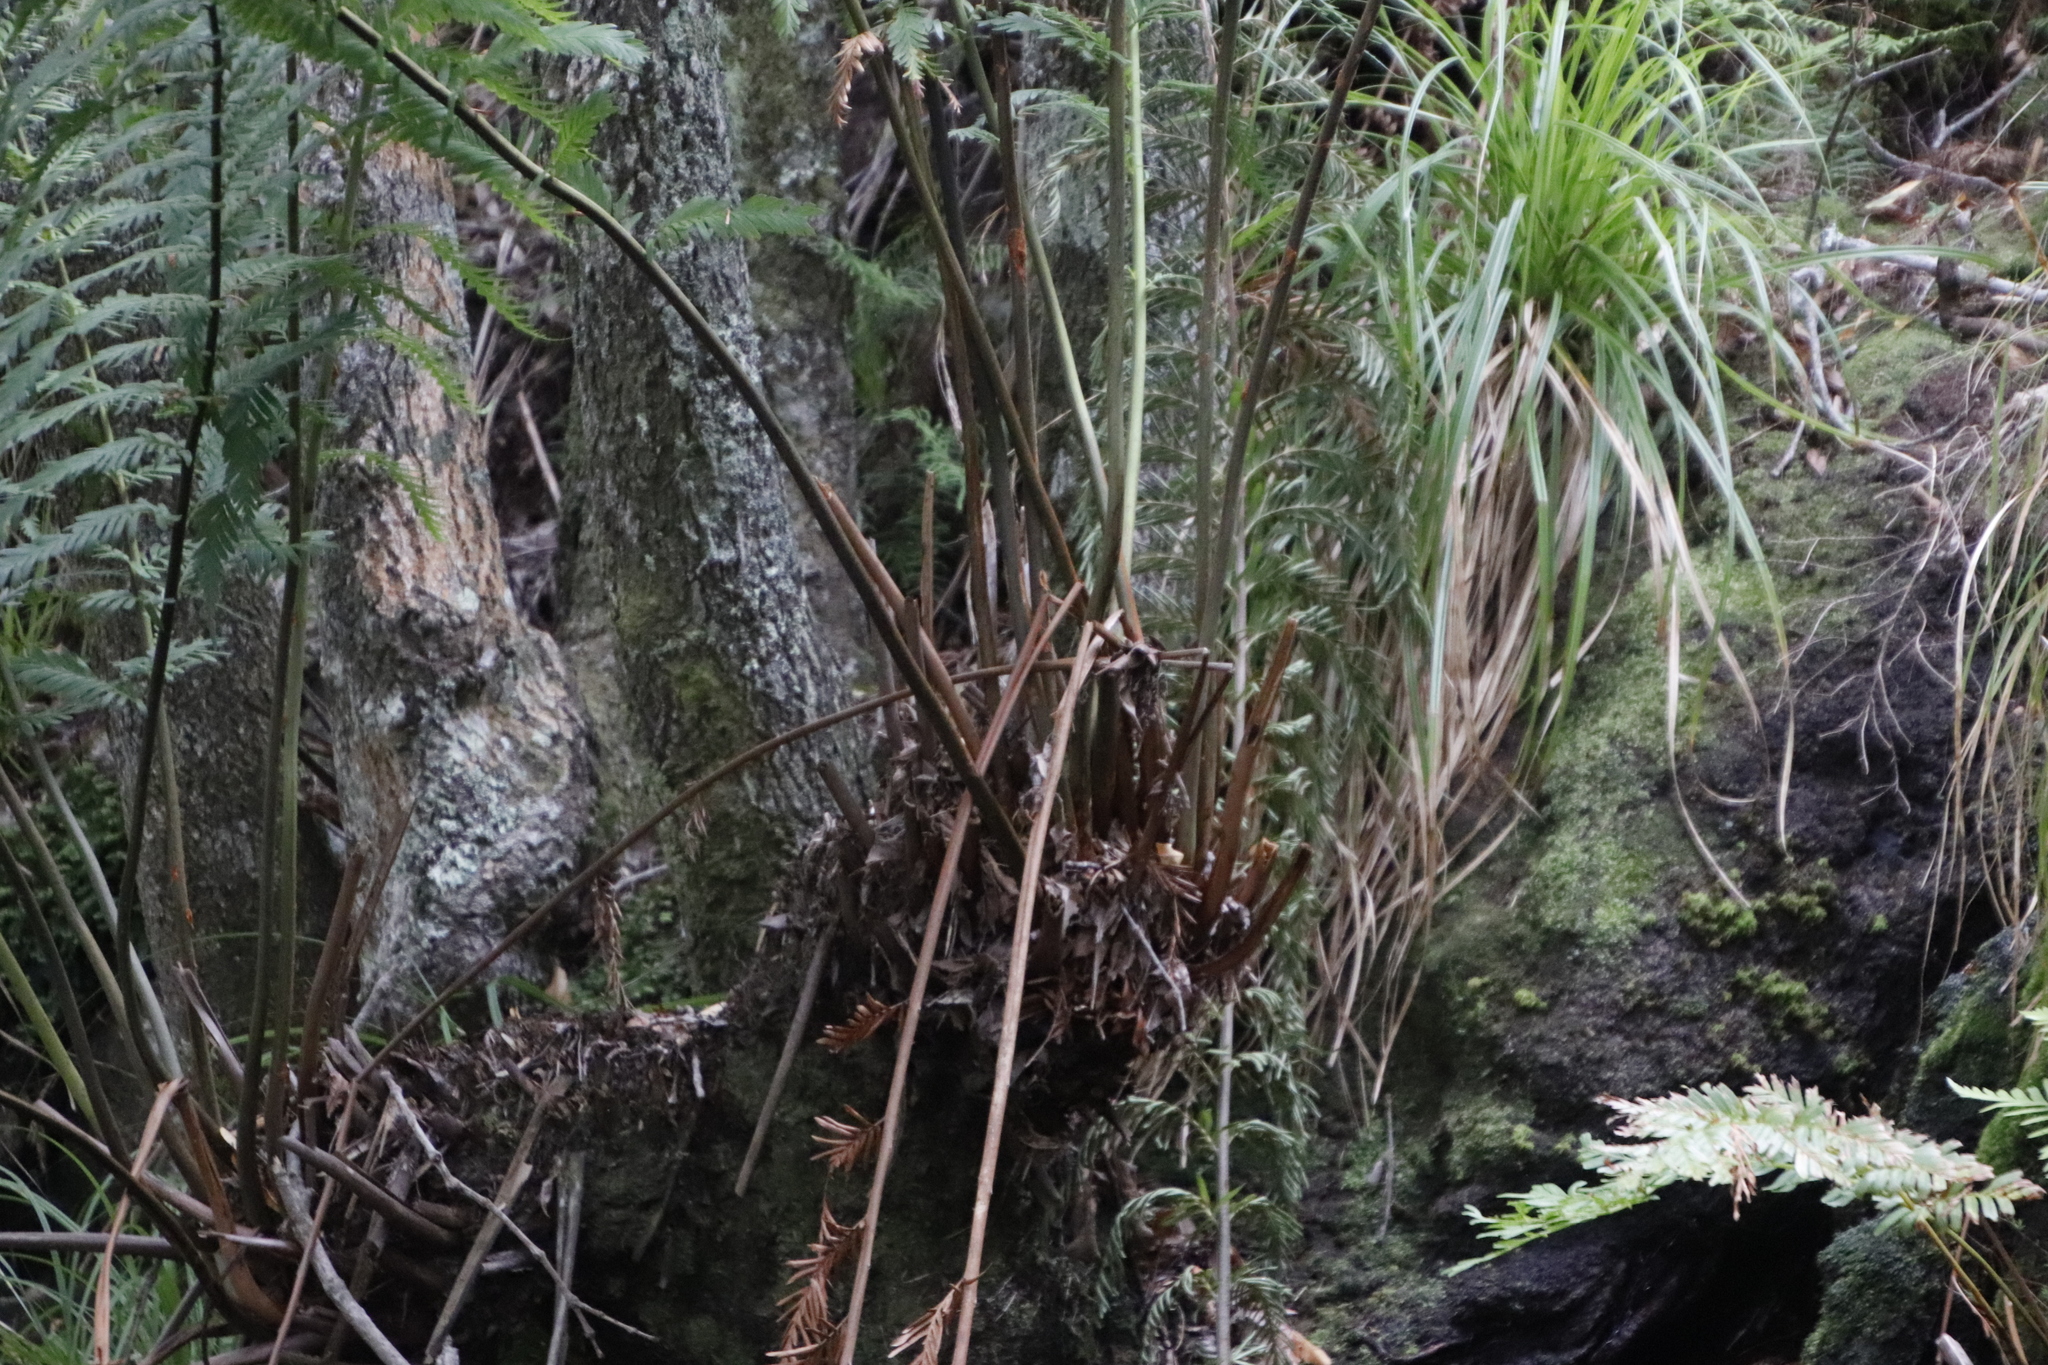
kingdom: Plantae
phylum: Tracheophyta
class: Polypodiopsida
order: Osmundales
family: Osmundaceae
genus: Todea
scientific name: Todea barbara
